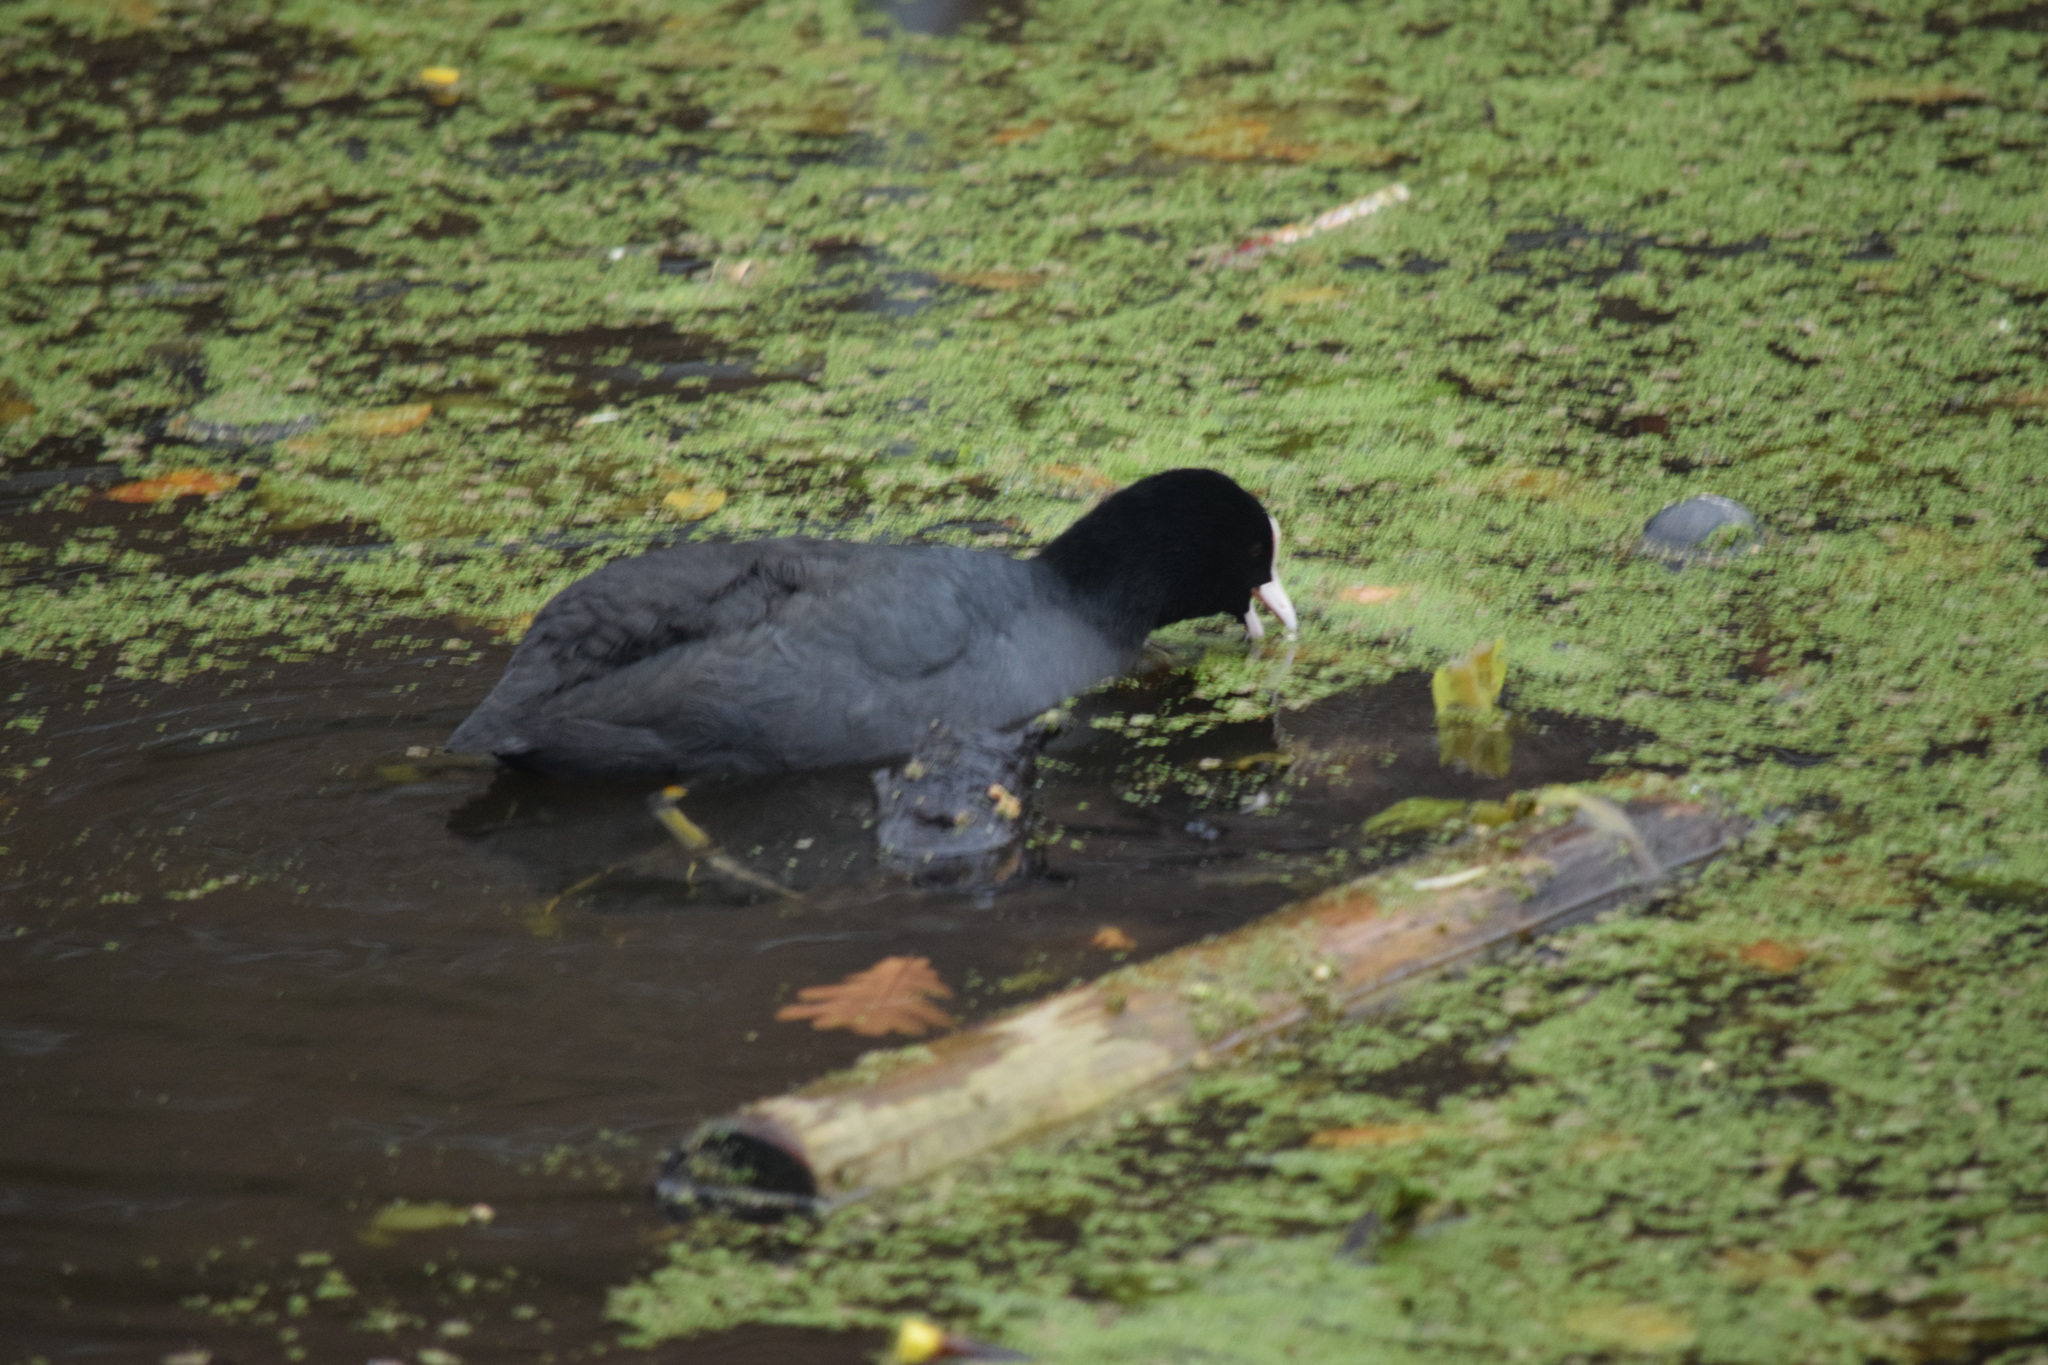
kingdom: Animalia
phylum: Chordata
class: Aves
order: Gruiformes
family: Rallidae
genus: Fulica
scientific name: Fulica atra
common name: Eurasian coot
